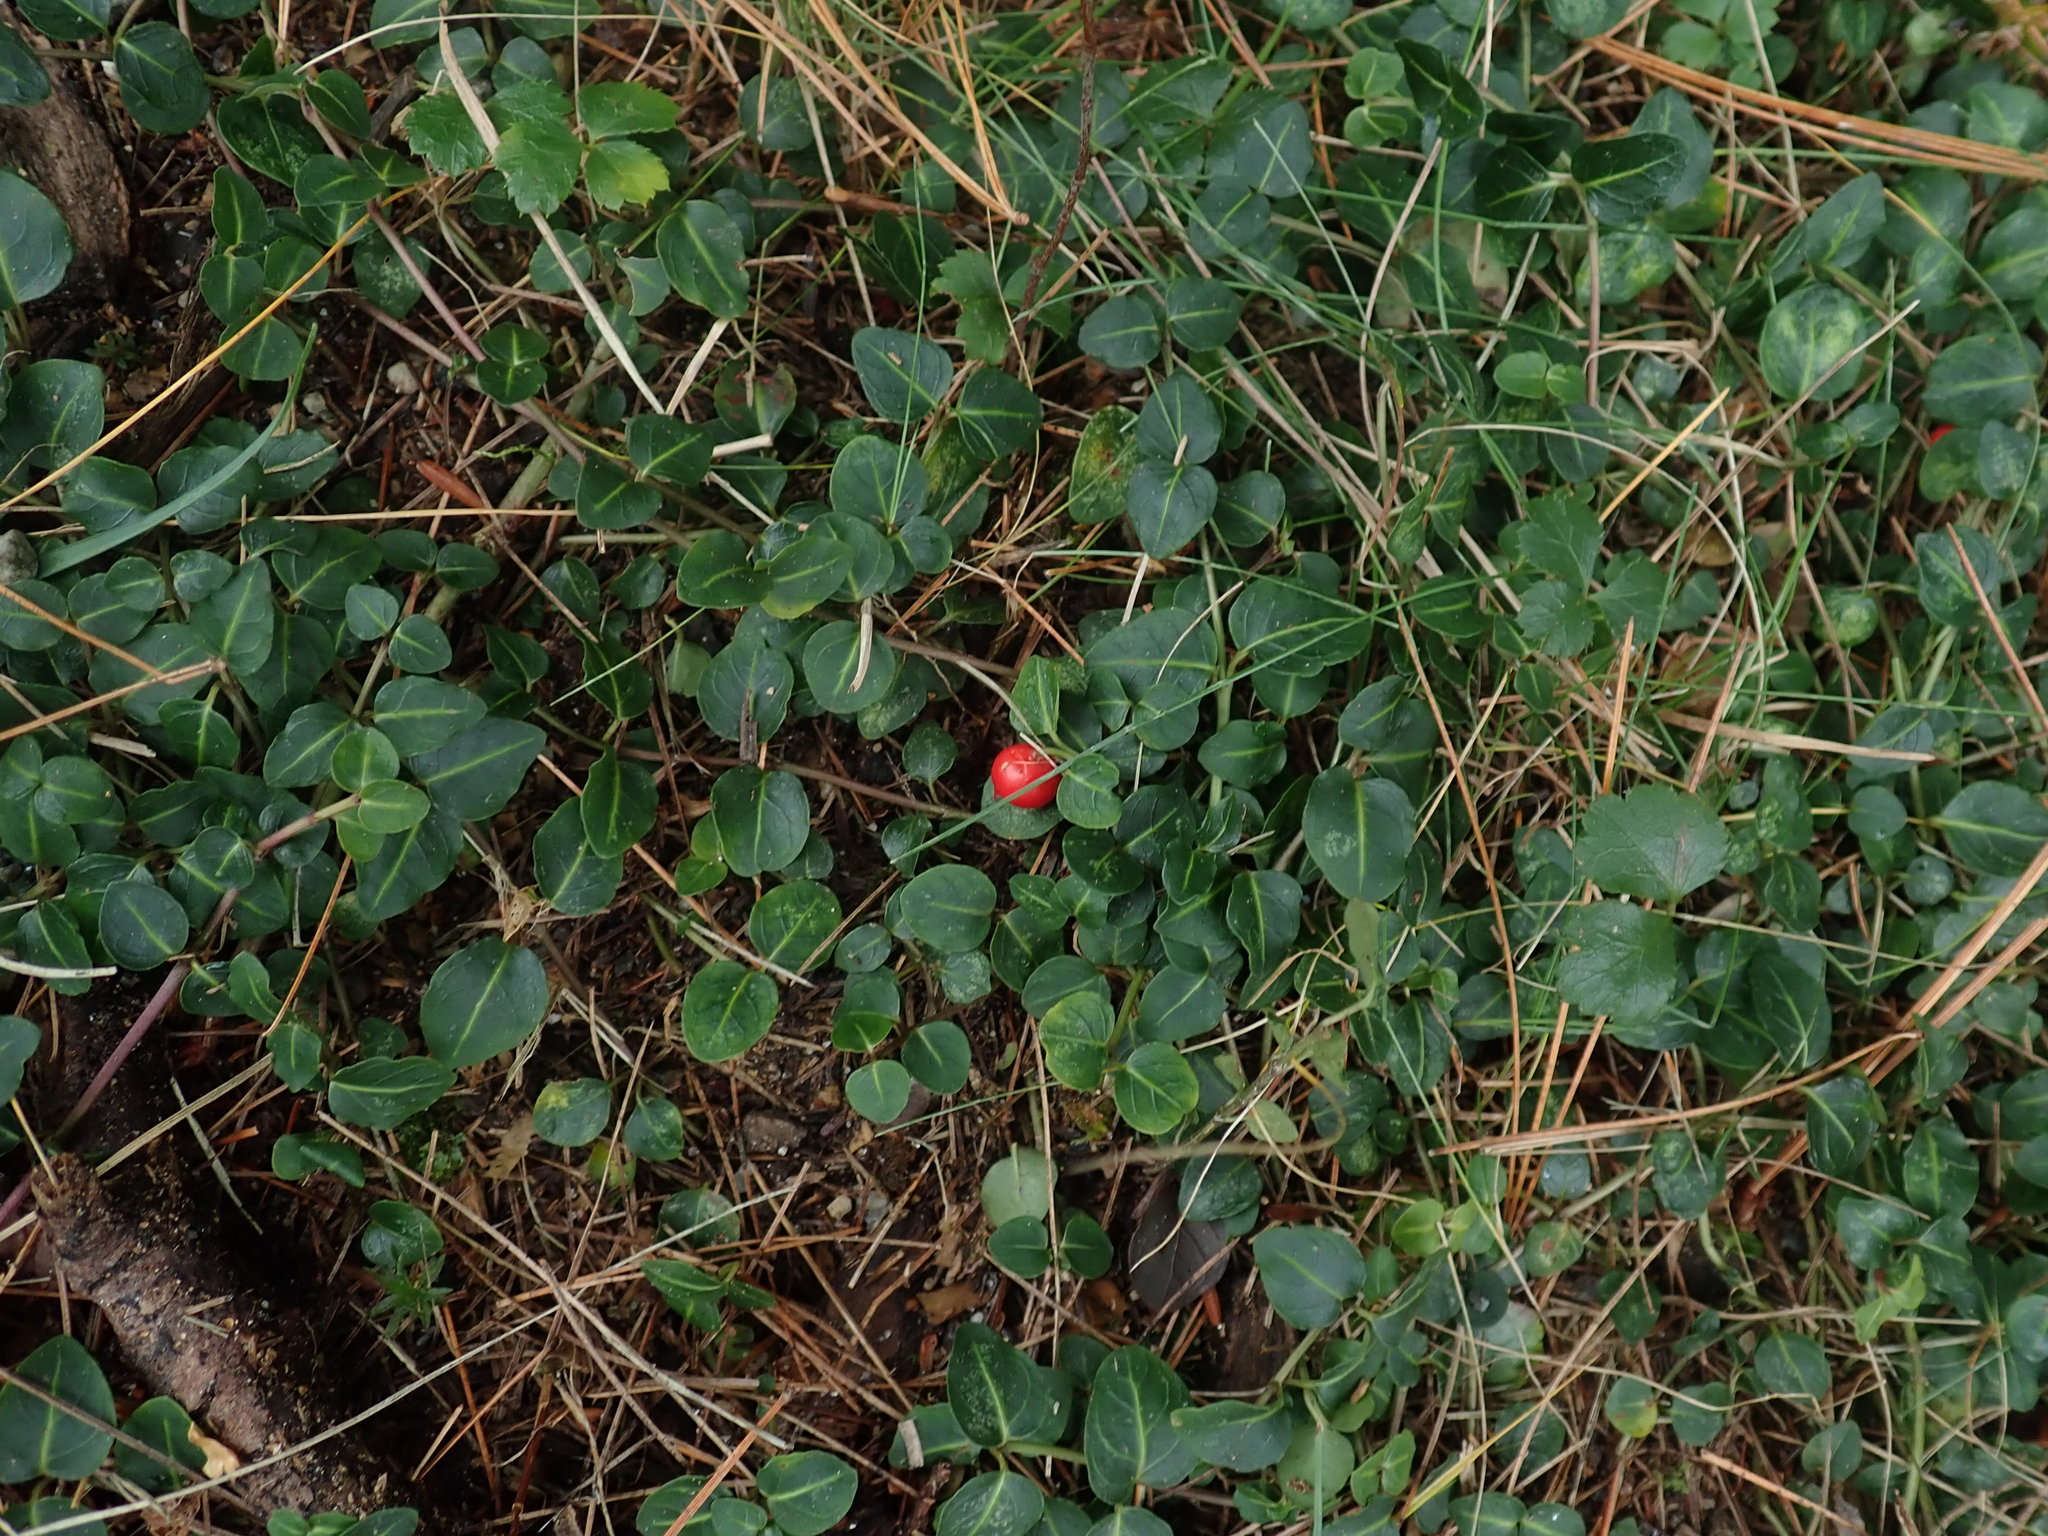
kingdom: Plantae
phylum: Tracheophyta
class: Magnoliopsida
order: Gentianales
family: Rubiaceae
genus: Mitchella
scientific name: Mitchella repens
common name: Partridge-berry
